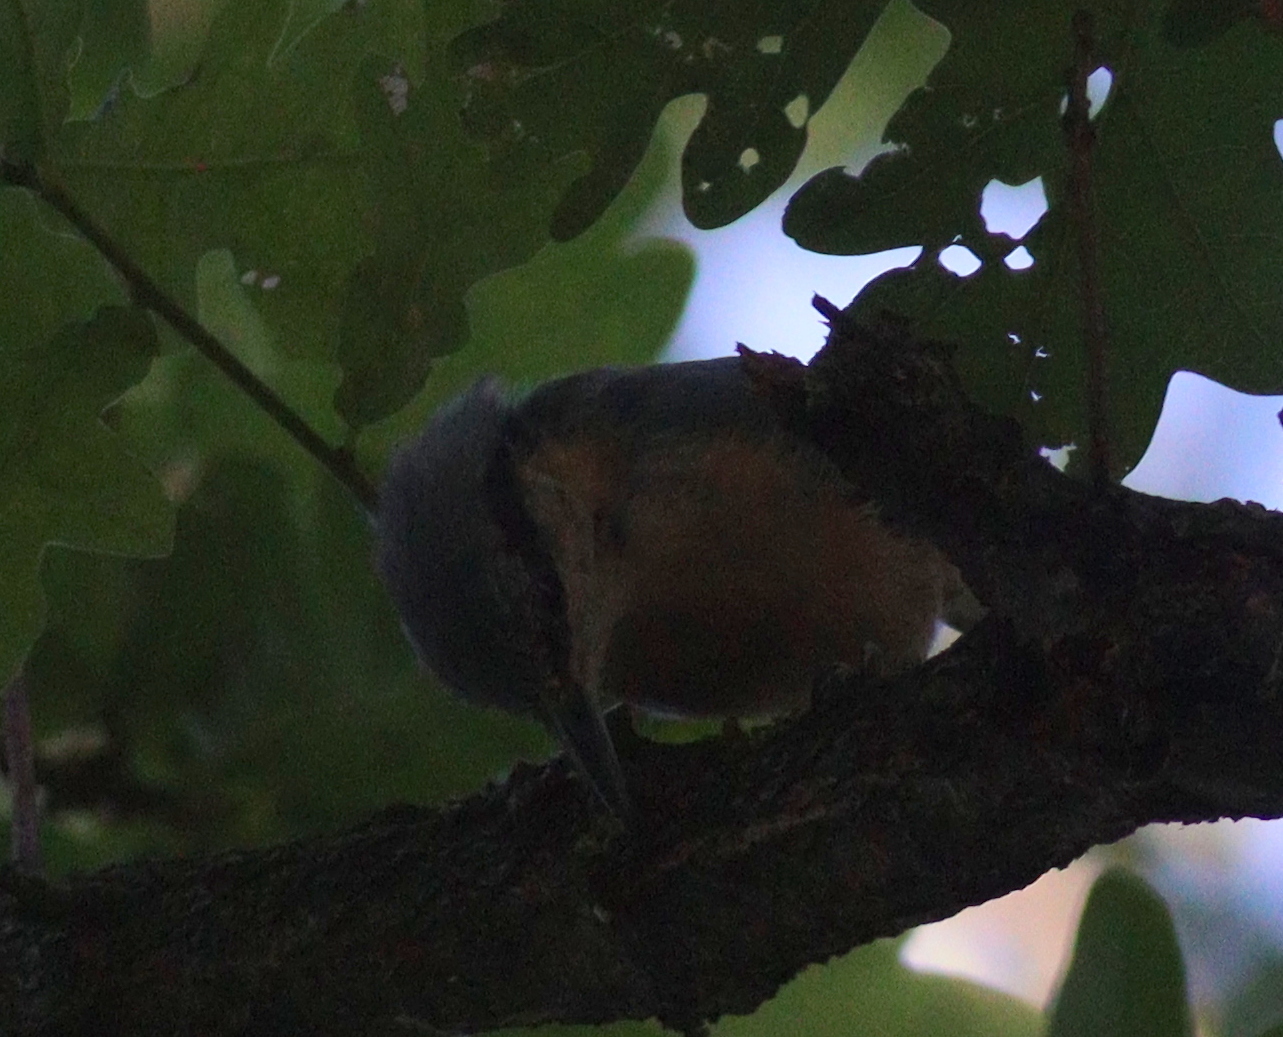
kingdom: Animalia
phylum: Chordata
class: Aves
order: Passeriformes
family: Sittidae
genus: Sitta
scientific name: Sitta europaea
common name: Eurasian nuthatch
